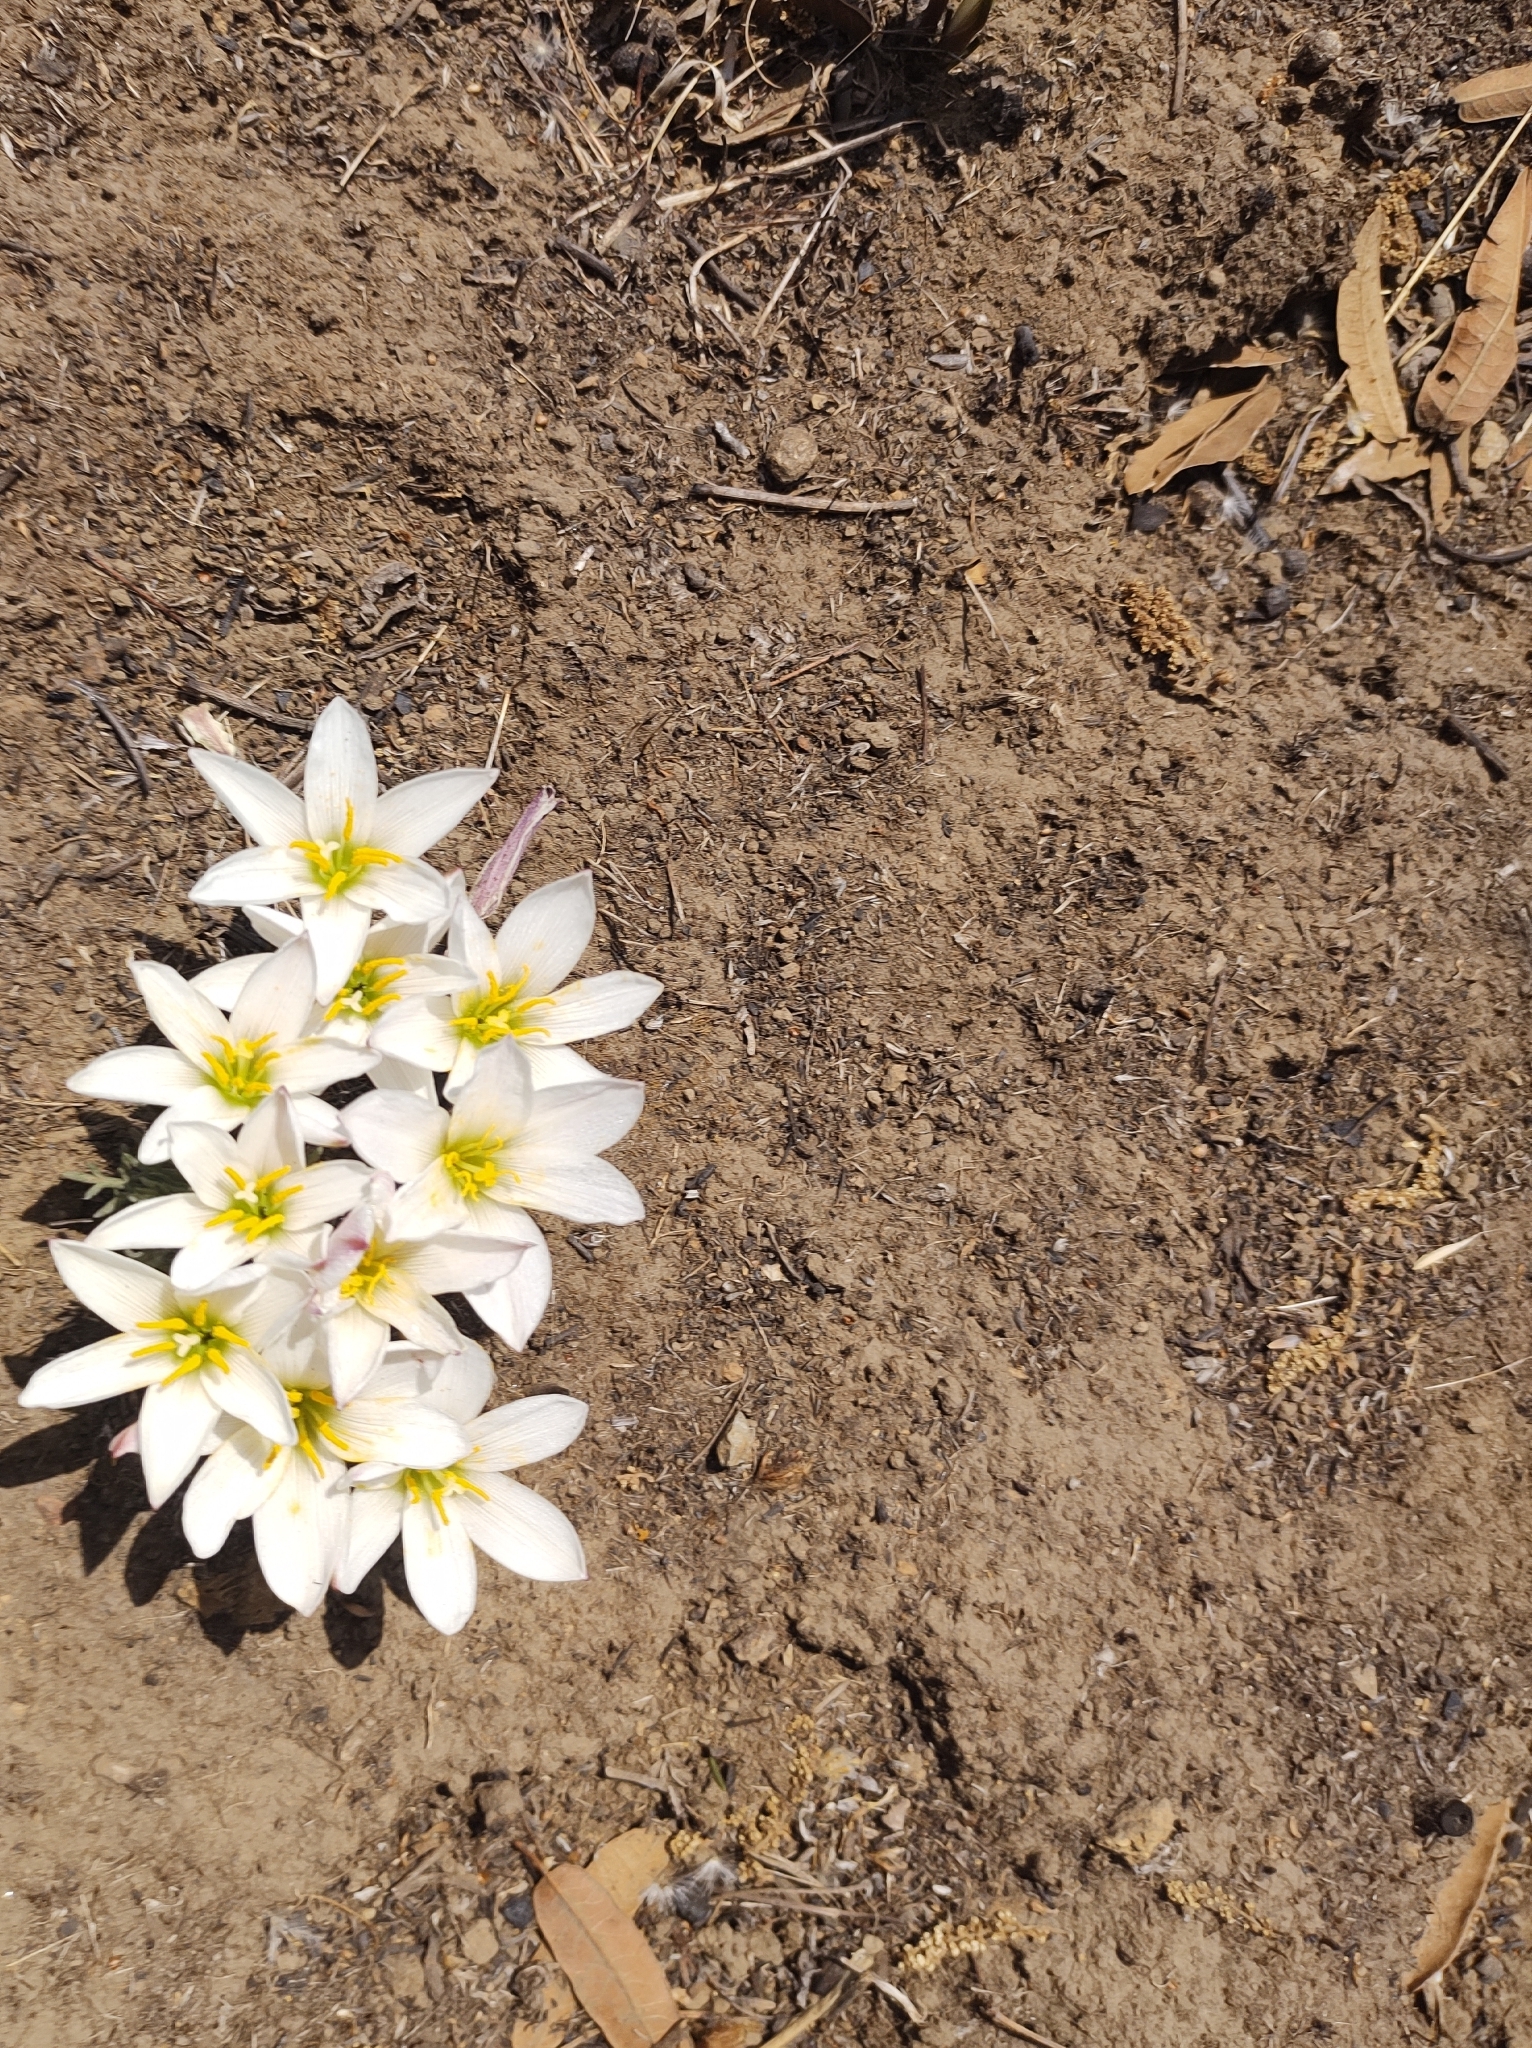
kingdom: Plantae
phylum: Tracheophyta
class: Liliopsida
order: Asparagales
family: Amaryllidaceae
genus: Zephyranthes
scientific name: Zephyranthes fosteri
